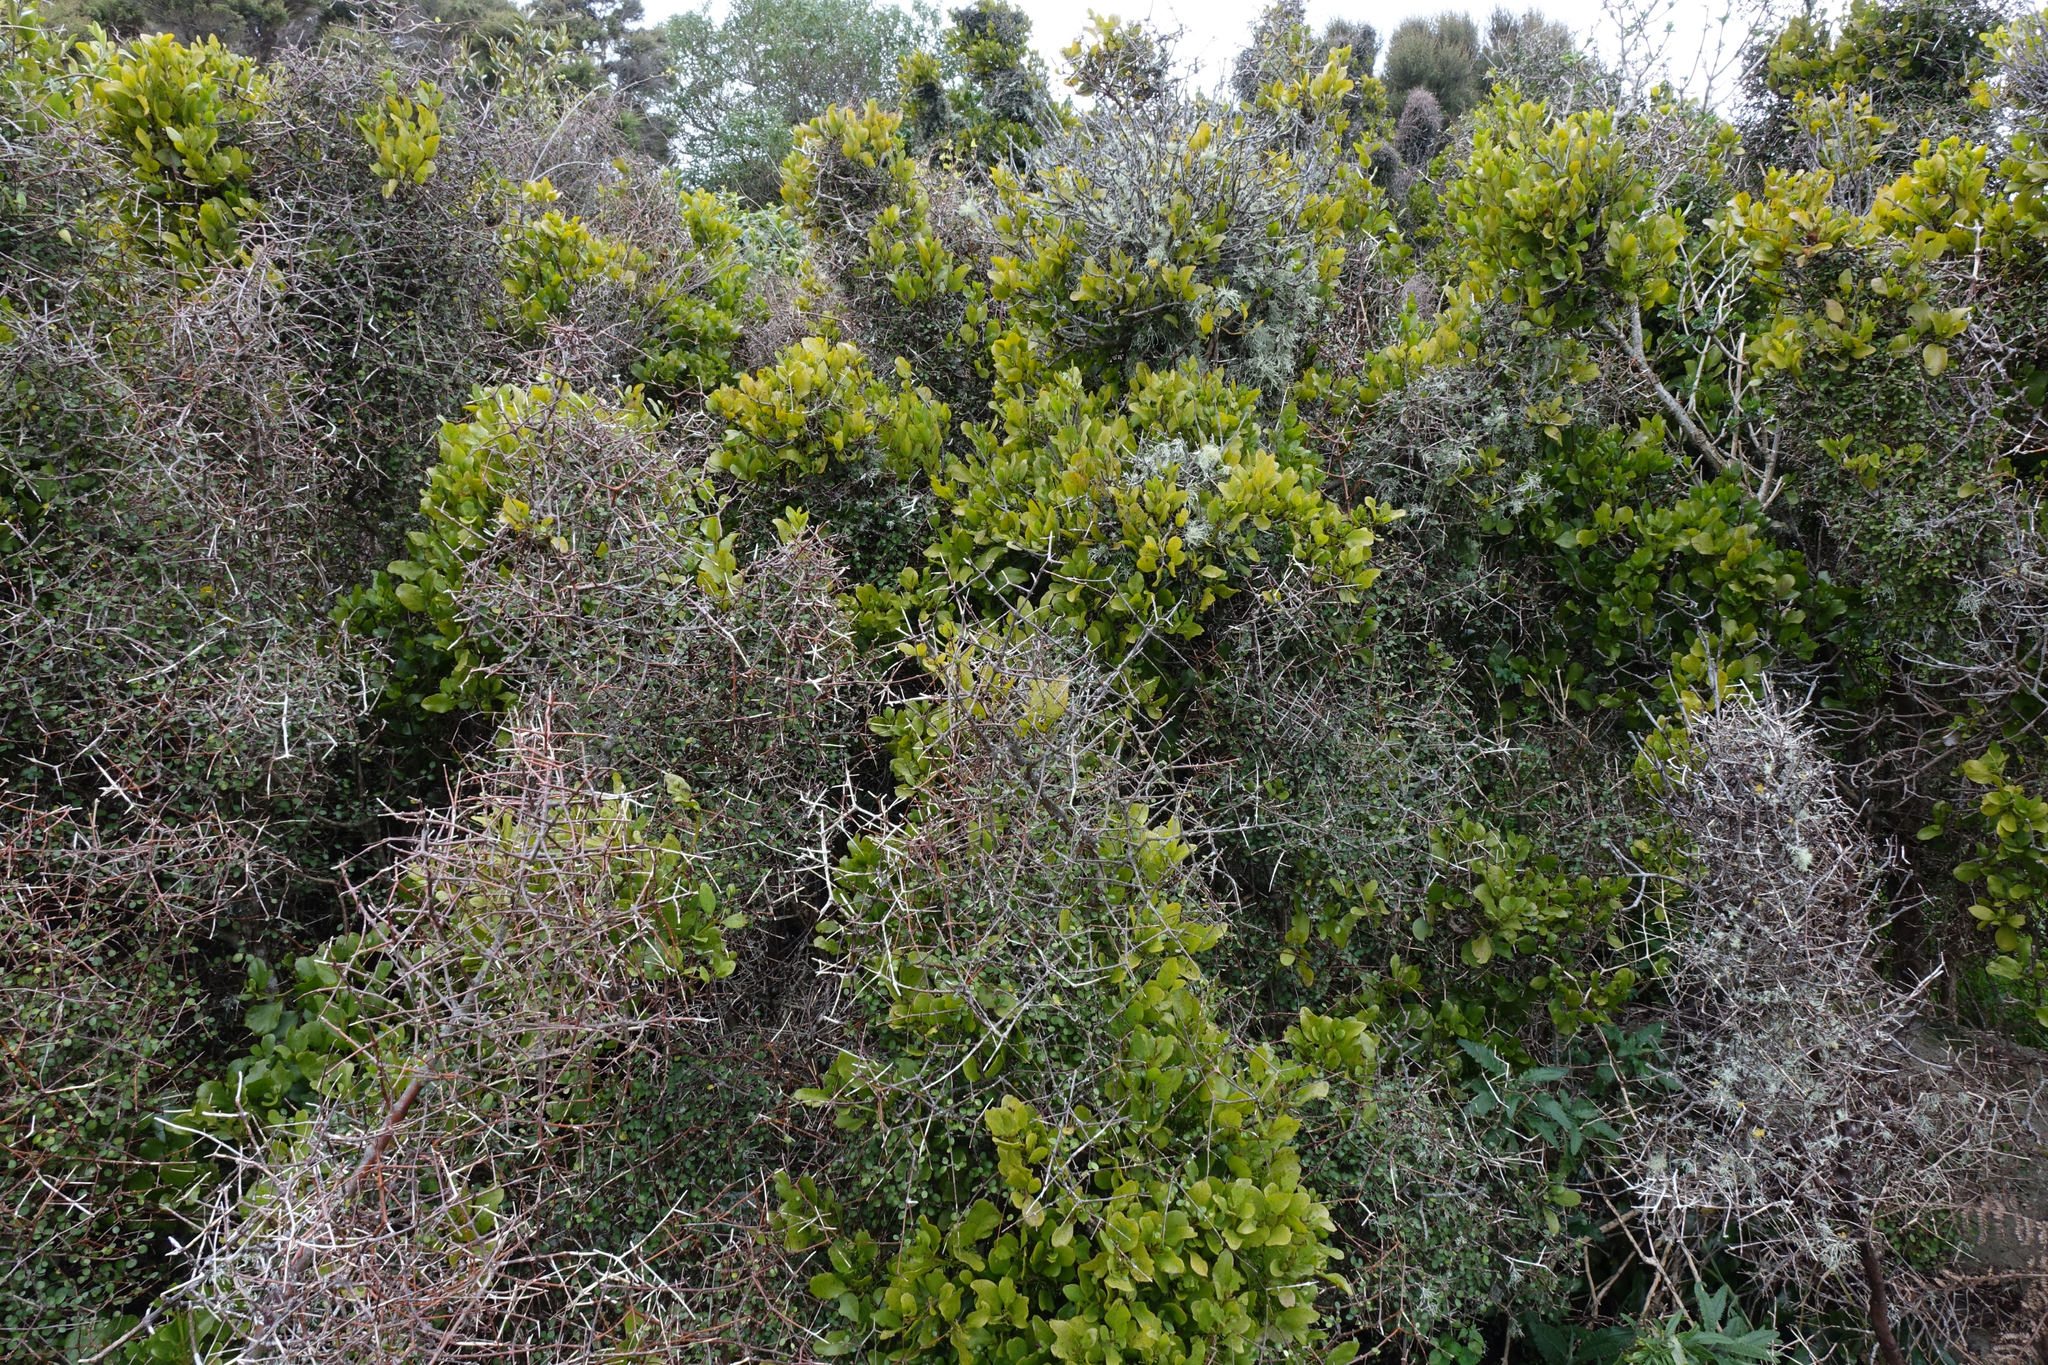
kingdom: Plantae
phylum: Tracheophyta
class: Magnoliopsida
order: Santalales
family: Loranthaceae
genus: Ileostylus
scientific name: Ileostylus micranthus
